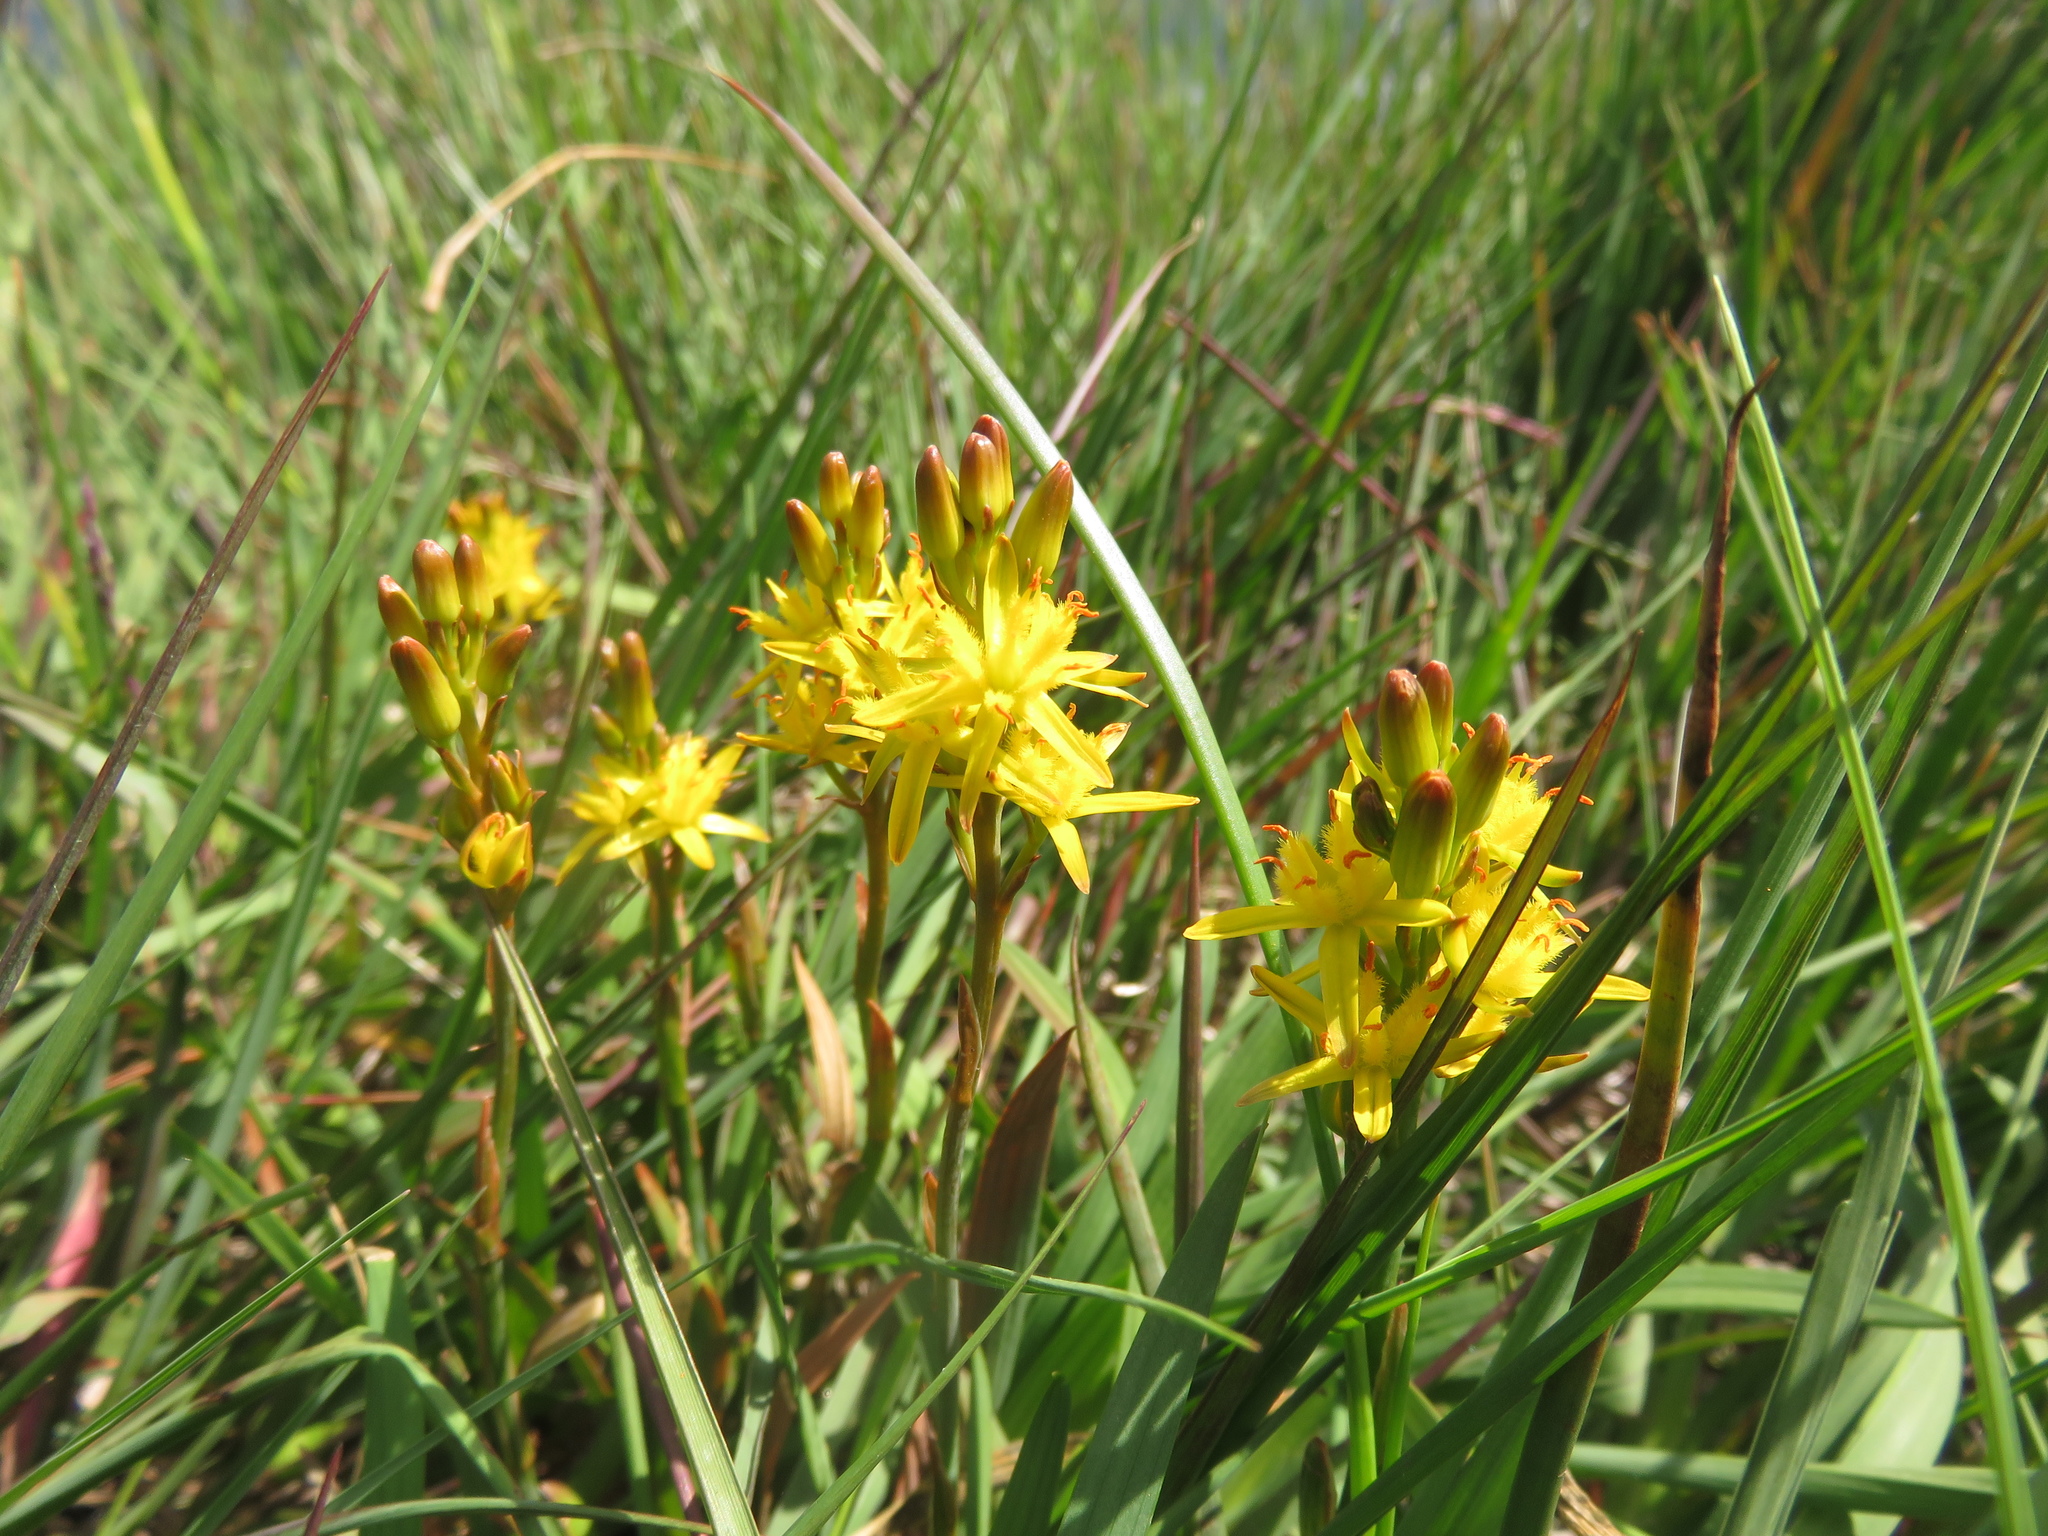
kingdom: Plantae
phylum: Tracheophyta
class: Liliopsida
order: Dioscoreales
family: Nartheciaceae
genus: Narthecium
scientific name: Narthecium ossifragum
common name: Bog asphodel
